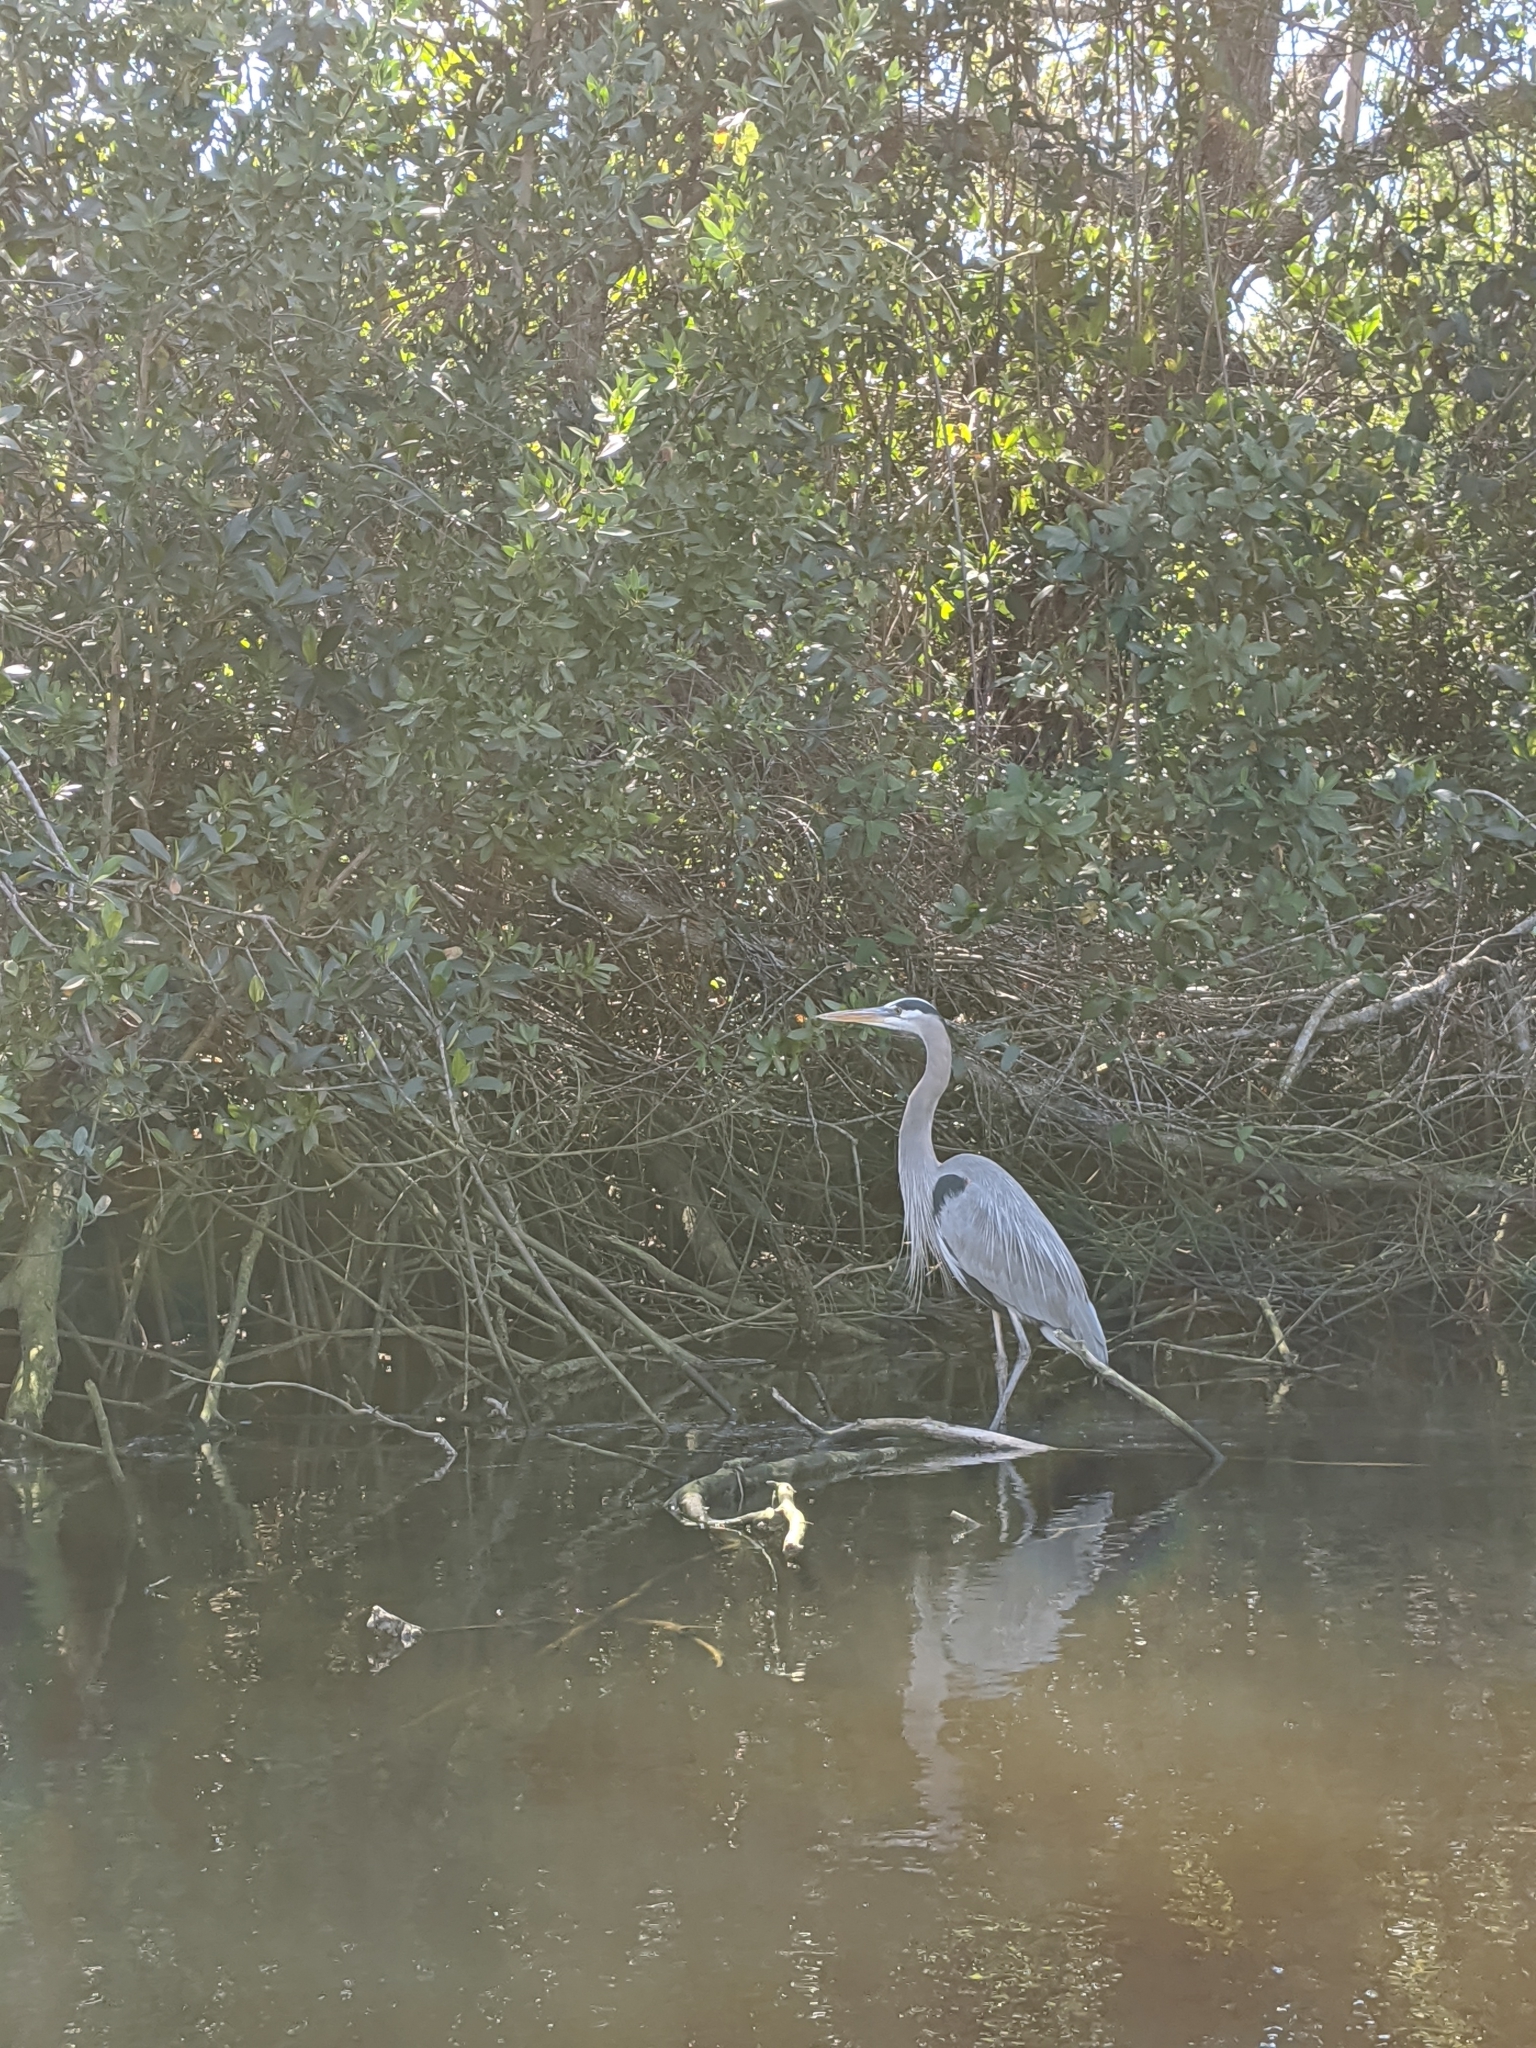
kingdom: Animalia
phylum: Chordata
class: Aves
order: Pelecaniformes
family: Ardeidae
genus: Ardea
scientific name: Ardea herodias
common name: Great blue heron
